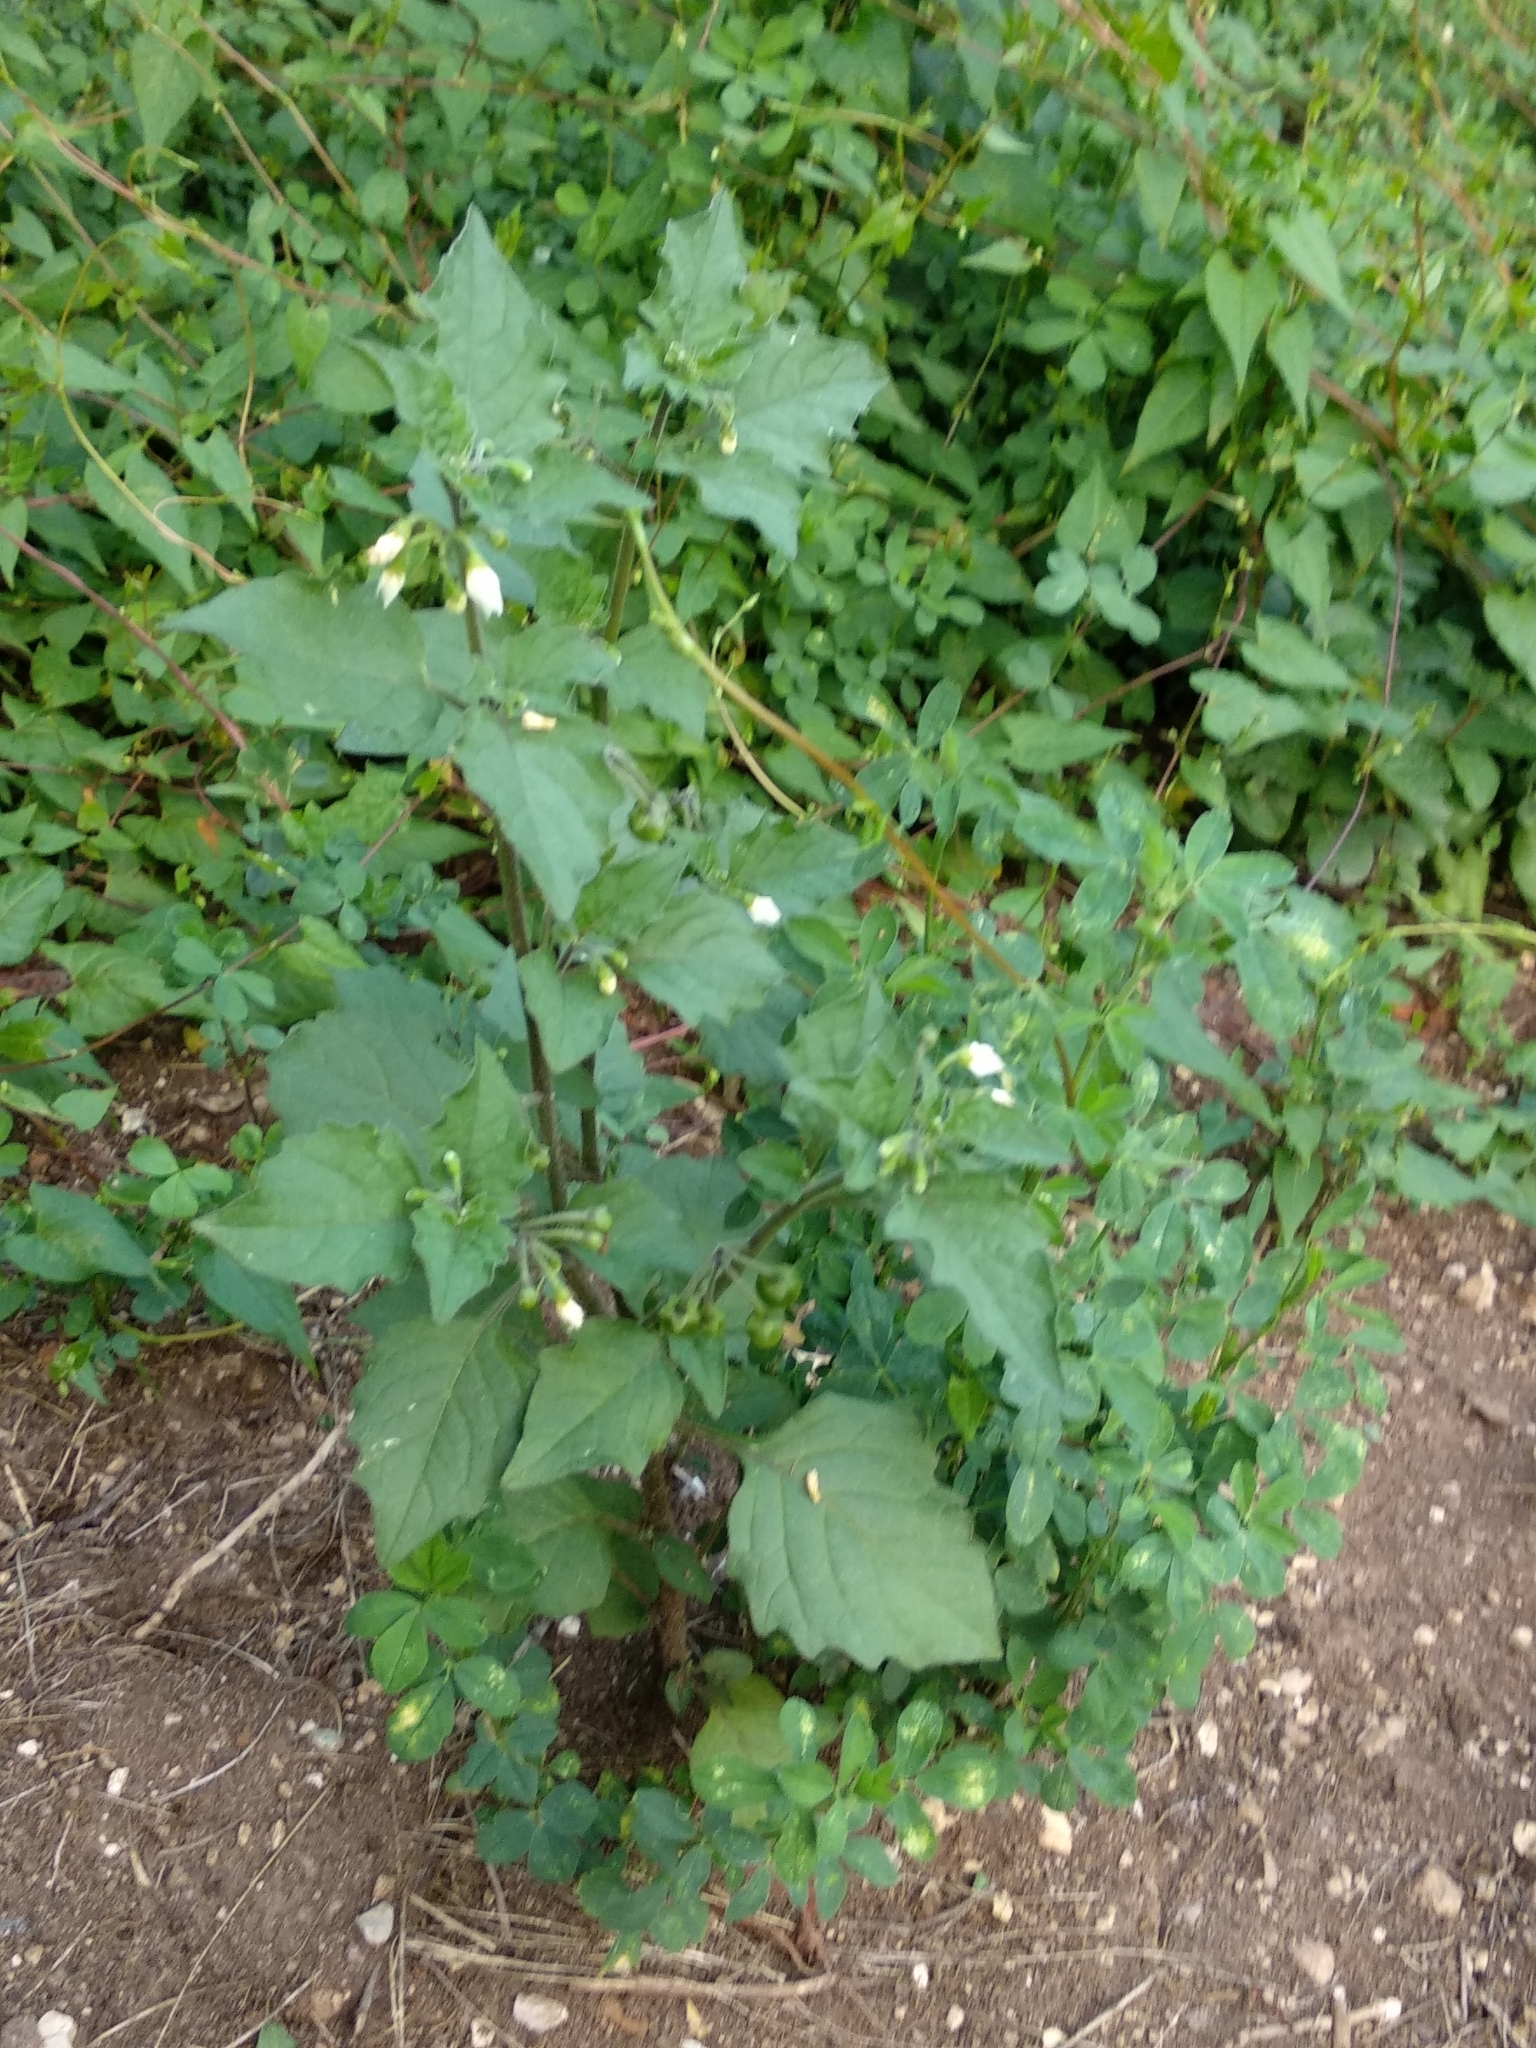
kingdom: Plantae
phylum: Tracheophyta
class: Magnoliopsida
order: Solanales
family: Solanaceae
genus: Solanum
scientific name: Solanum nigrum
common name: Black nightshade
